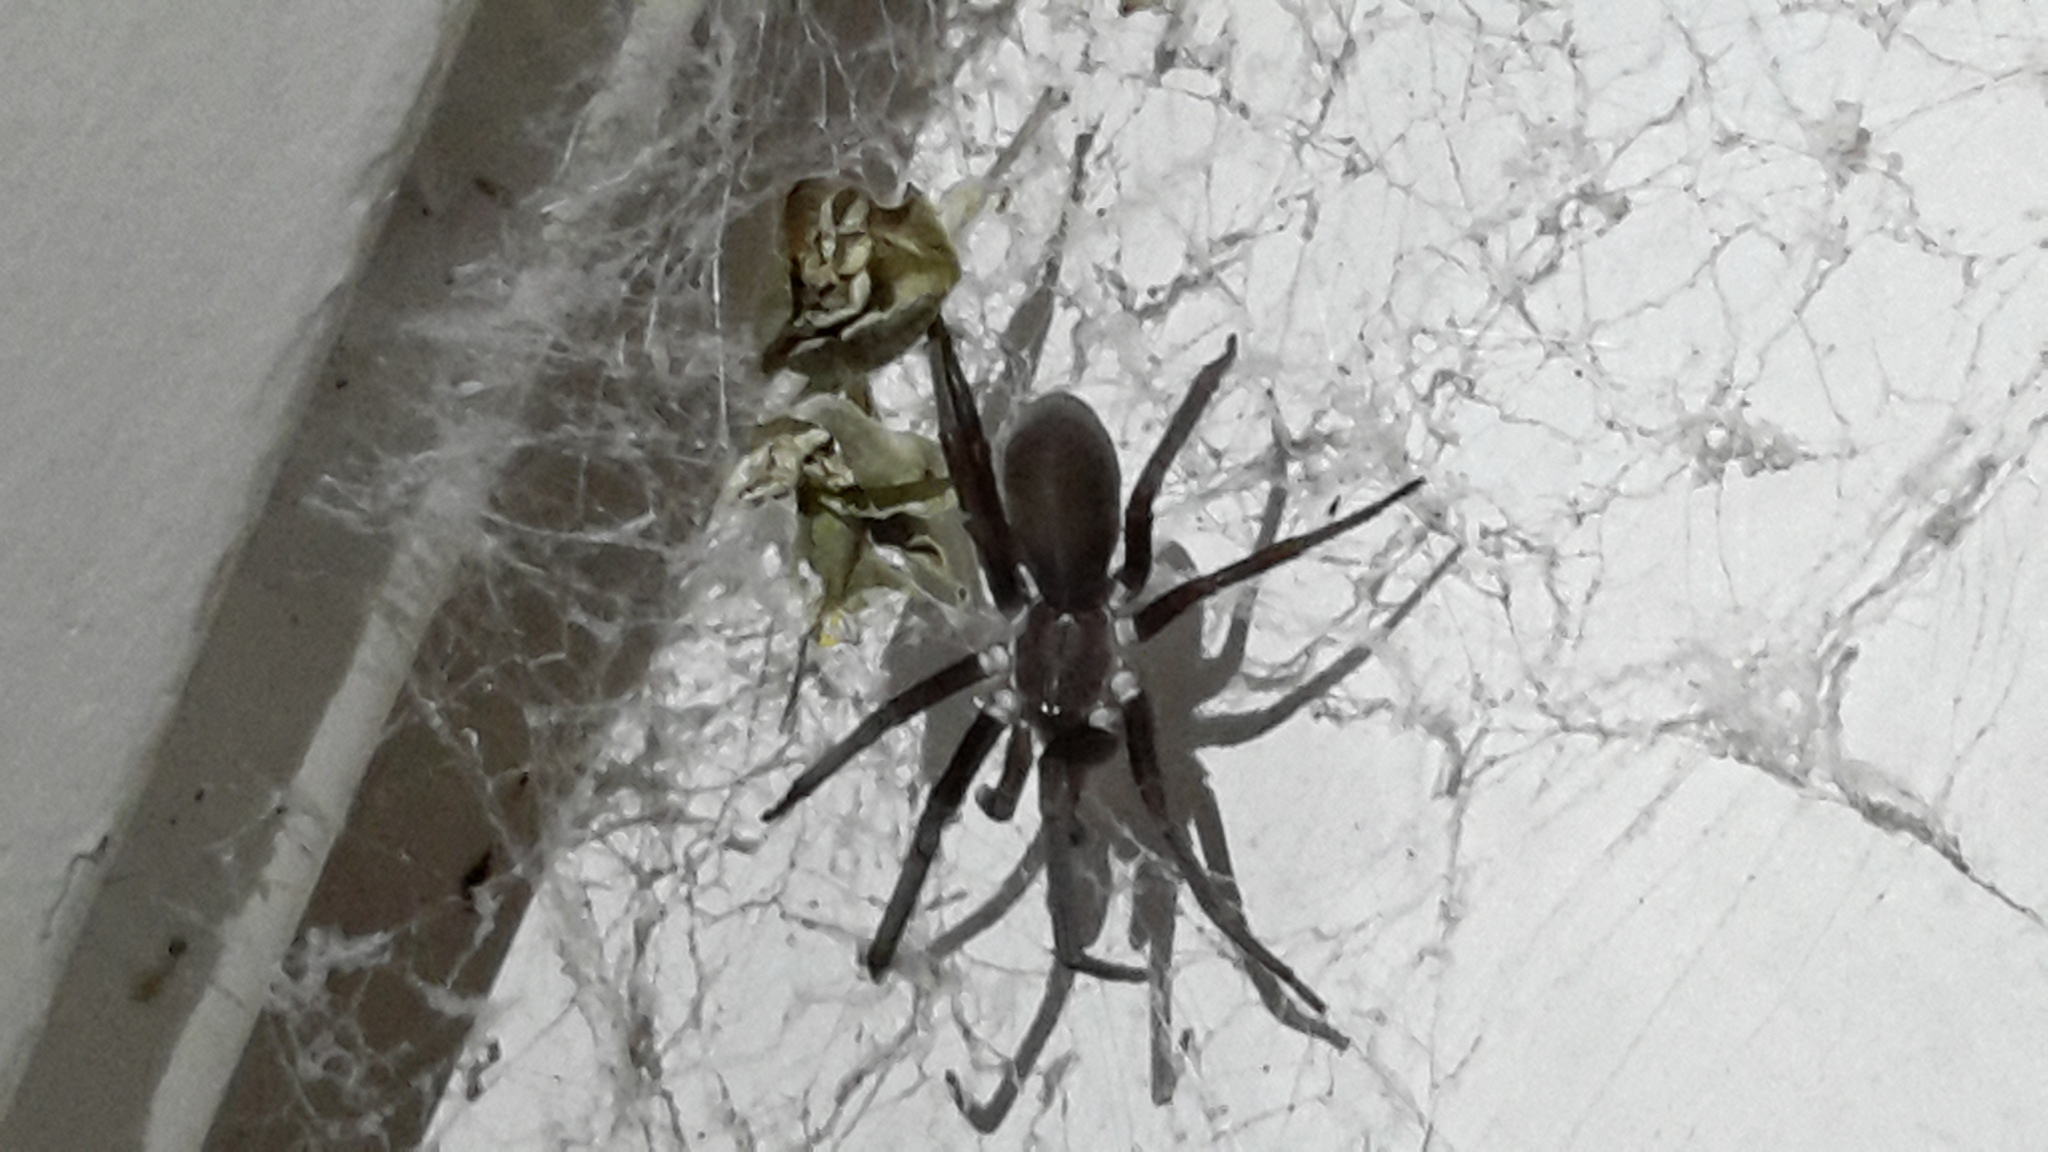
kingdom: Animalia
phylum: Arthropoda
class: Arachnida
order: Araneae
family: Filistatidae
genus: Kukulcania
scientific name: Kukulcania hibernalis
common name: Crevice weaver
